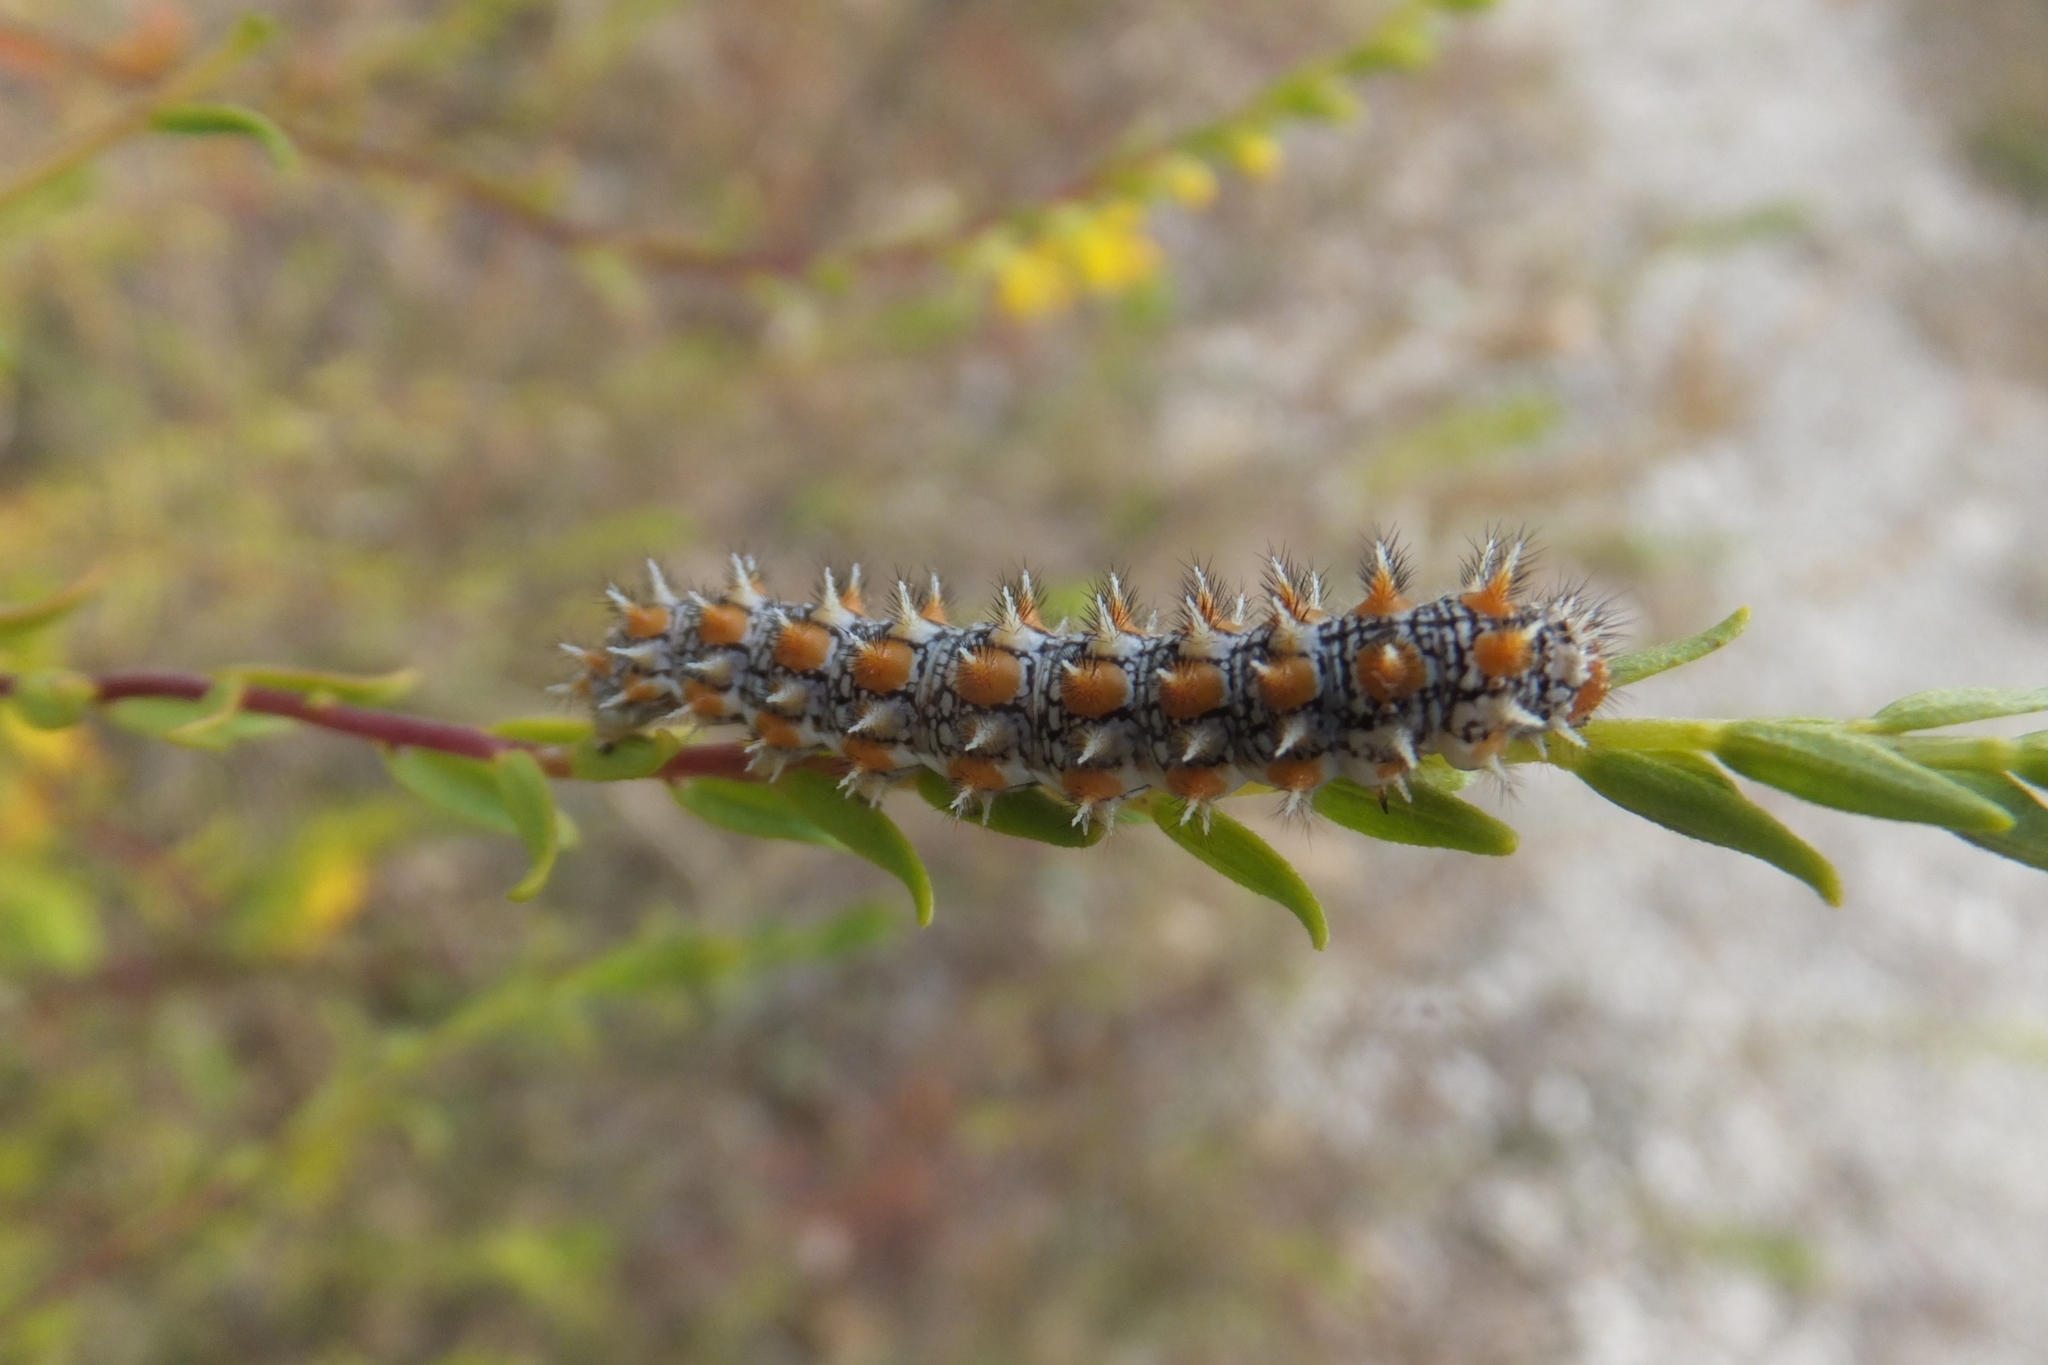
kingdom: Animalia
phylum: Arthropoda
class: Insecta
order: Lepidoptera
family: Nymphalidae
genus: Melitaea
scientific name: Melitaea didyma
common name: Spotted fritillary
